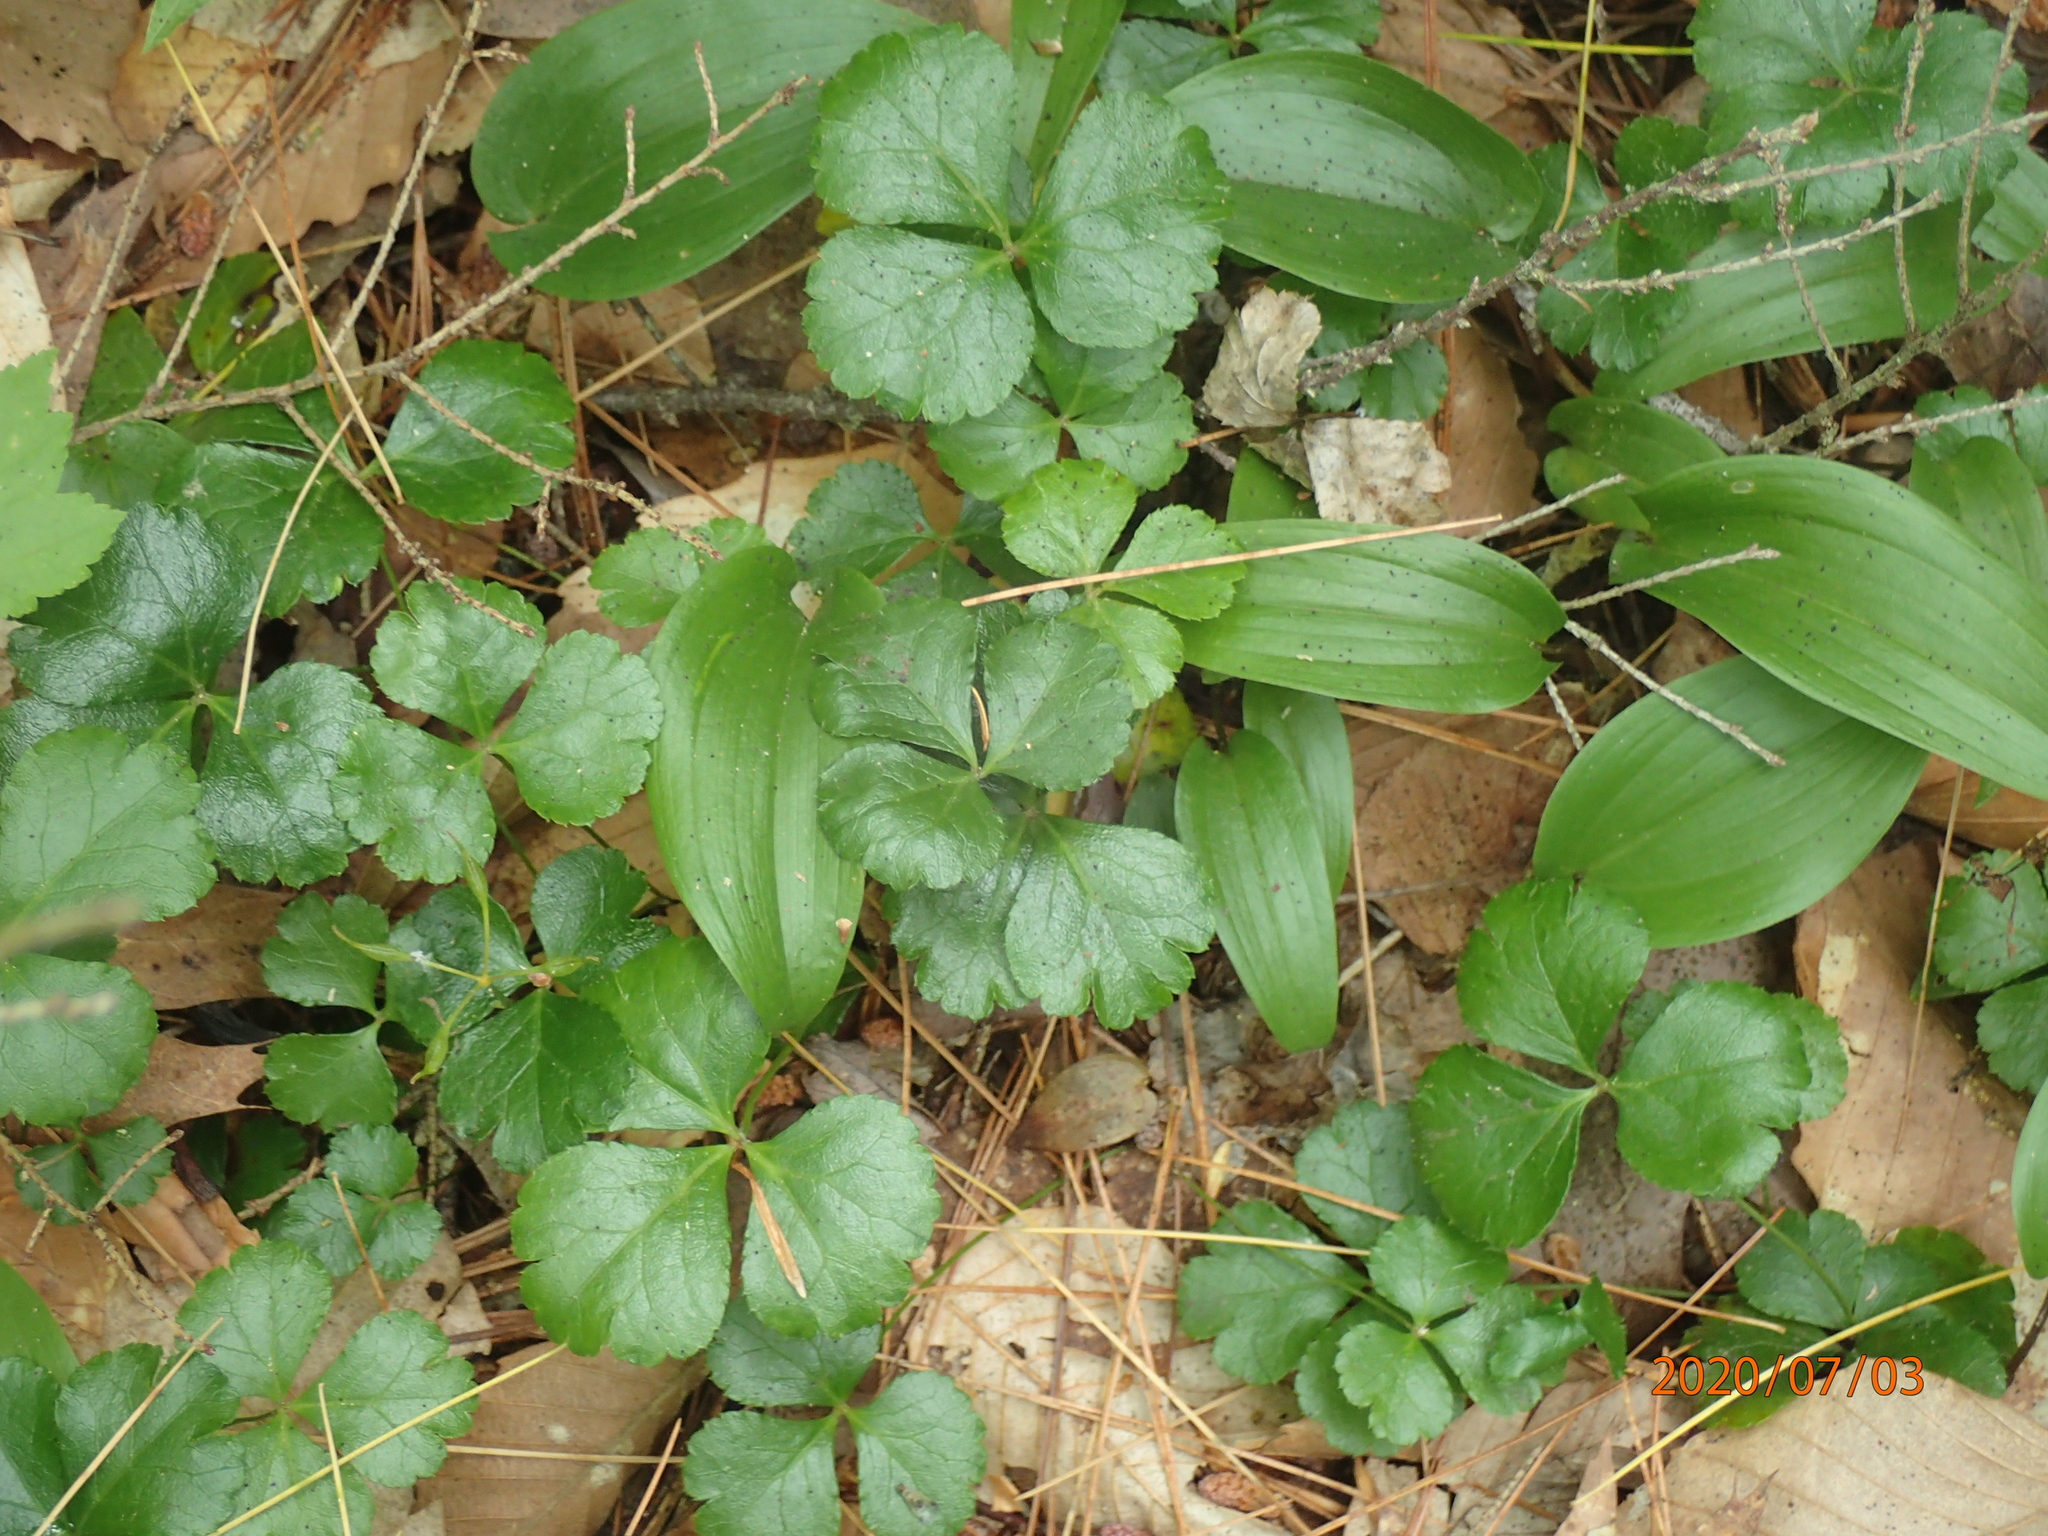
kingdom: Plantae
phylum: Tracheophyta
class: Liliopsida
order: Asparagales
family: Asparagaceae
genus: Maianthemum
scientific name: Maianthemum canadense
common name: False lily-of-the-valley
